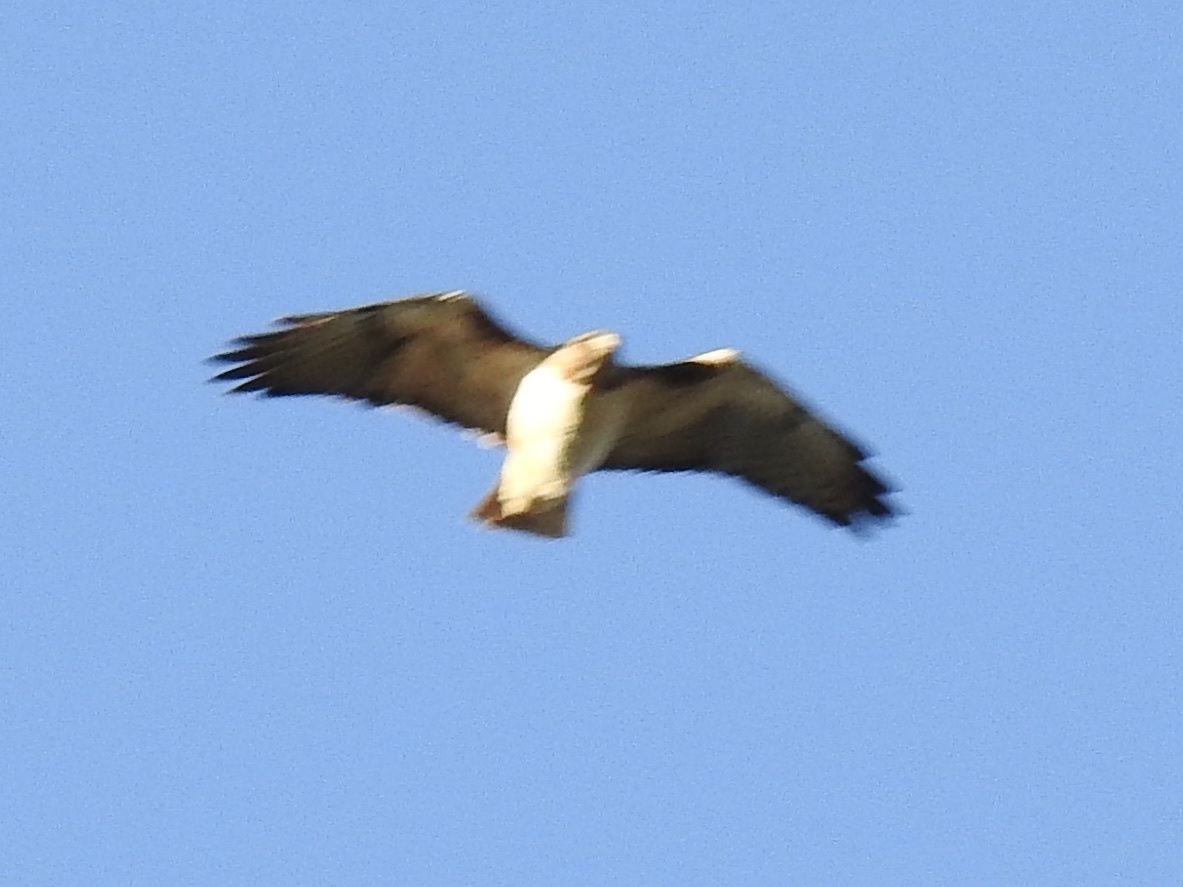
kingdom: Animalia
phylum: Chordata
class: Aves
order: Accipitriformes
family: Accipitridae
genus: Buteo
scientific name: Buteo jamaicensis
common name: Red-tailed hawk
